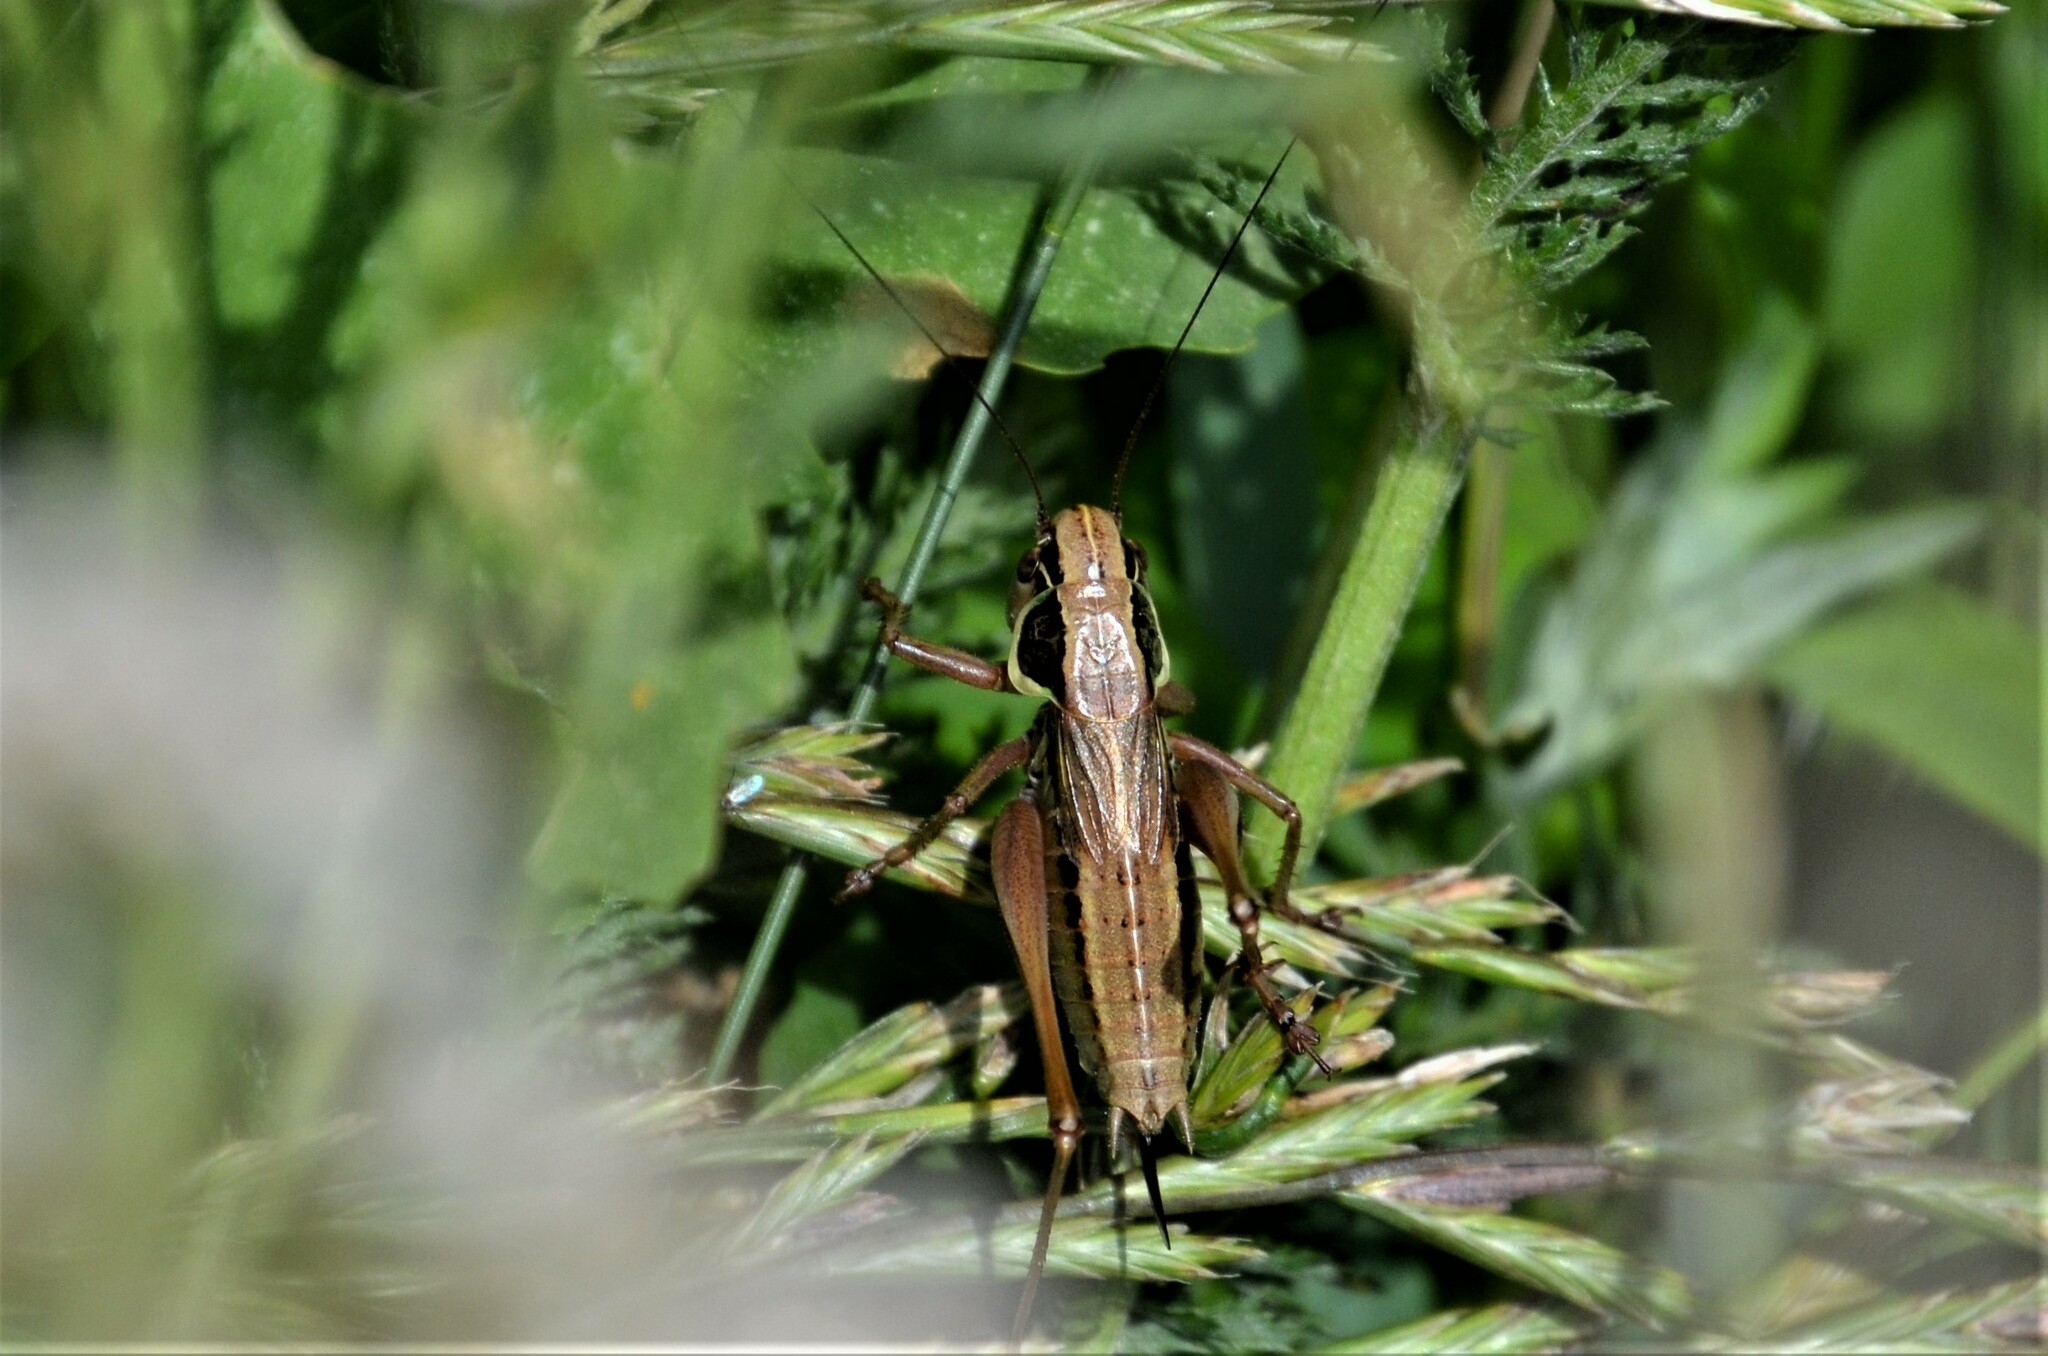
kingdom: Animalia
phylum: Arthropoda
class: Insecta
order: Orthoptera
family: Tettigoniidae
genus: Roeseliana
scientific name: Roeseliana roeselii
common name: Roesel's bush cricket
